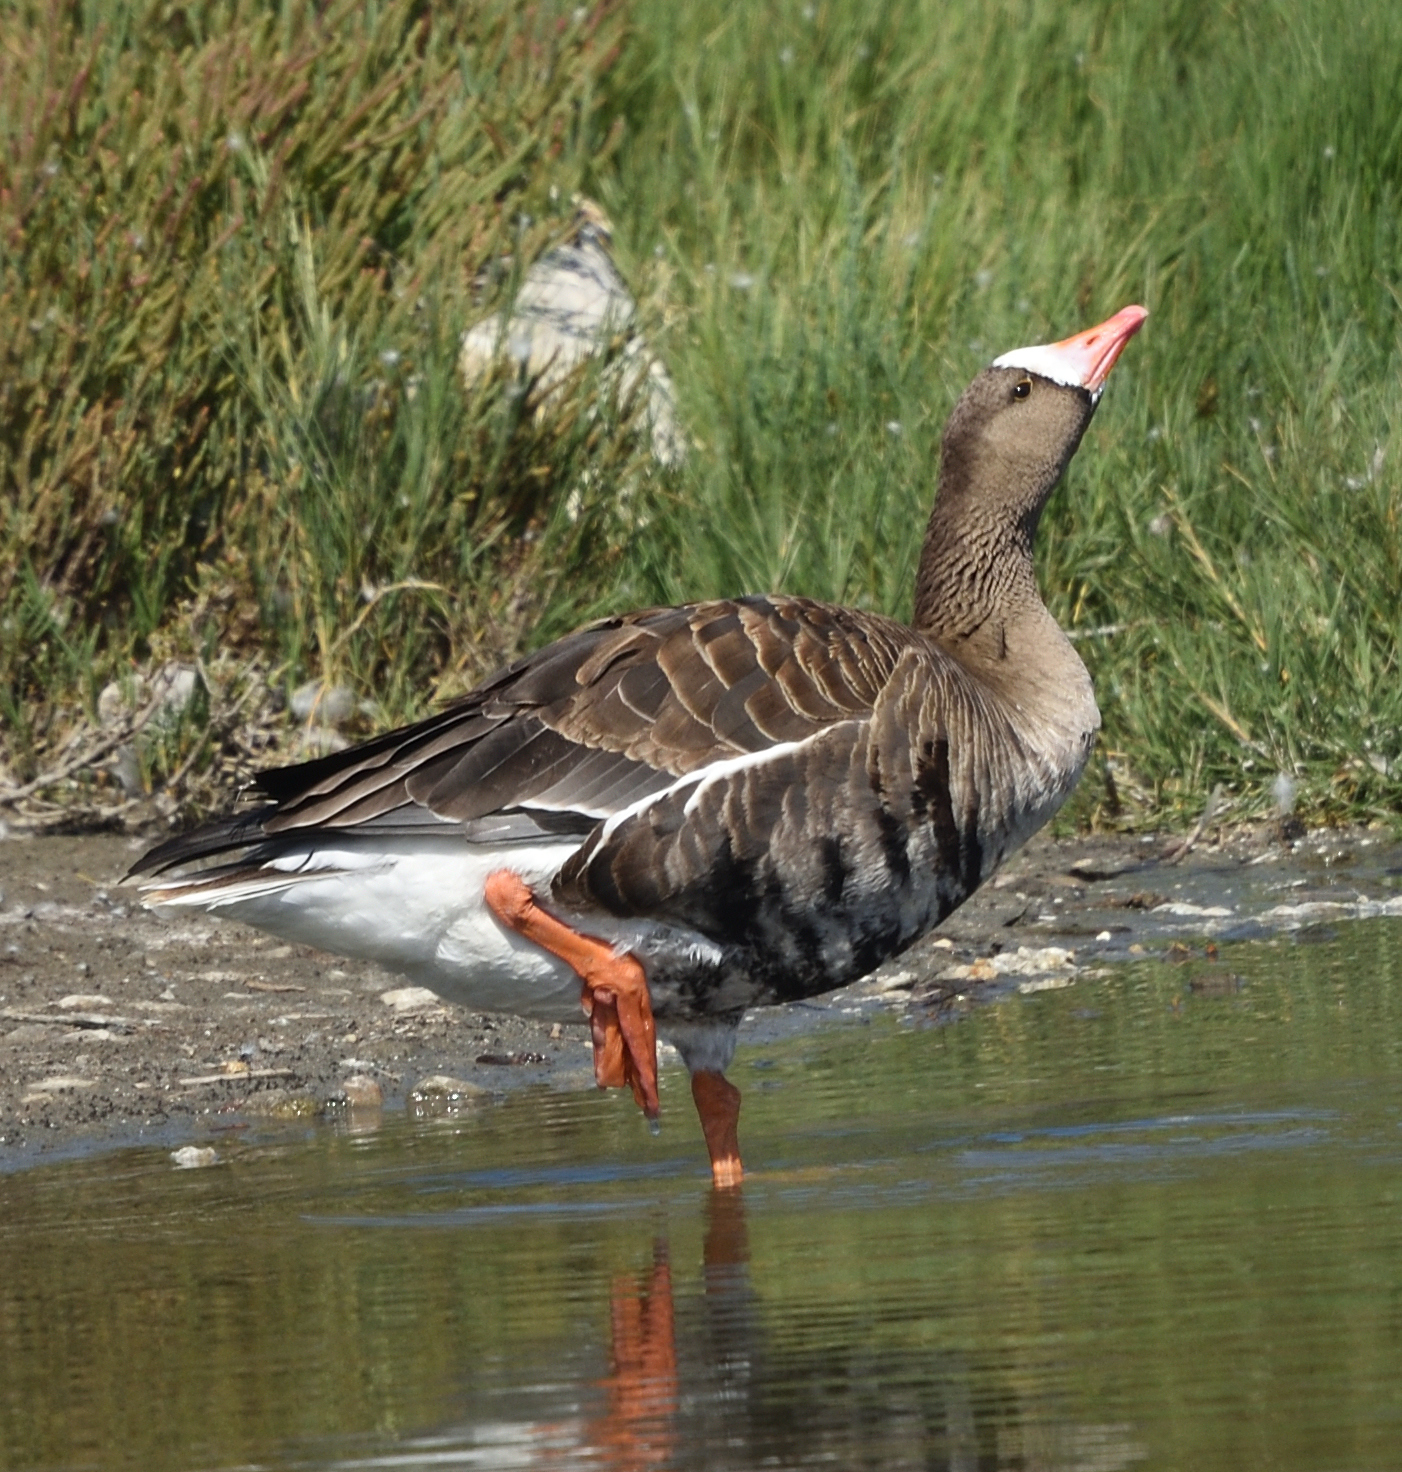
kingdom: Animalia
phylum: Chordata
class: Aves
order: Anseriformes
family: Anatidae
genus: Anser
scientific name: Anser albifrons
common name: Greater white-fronted goose
